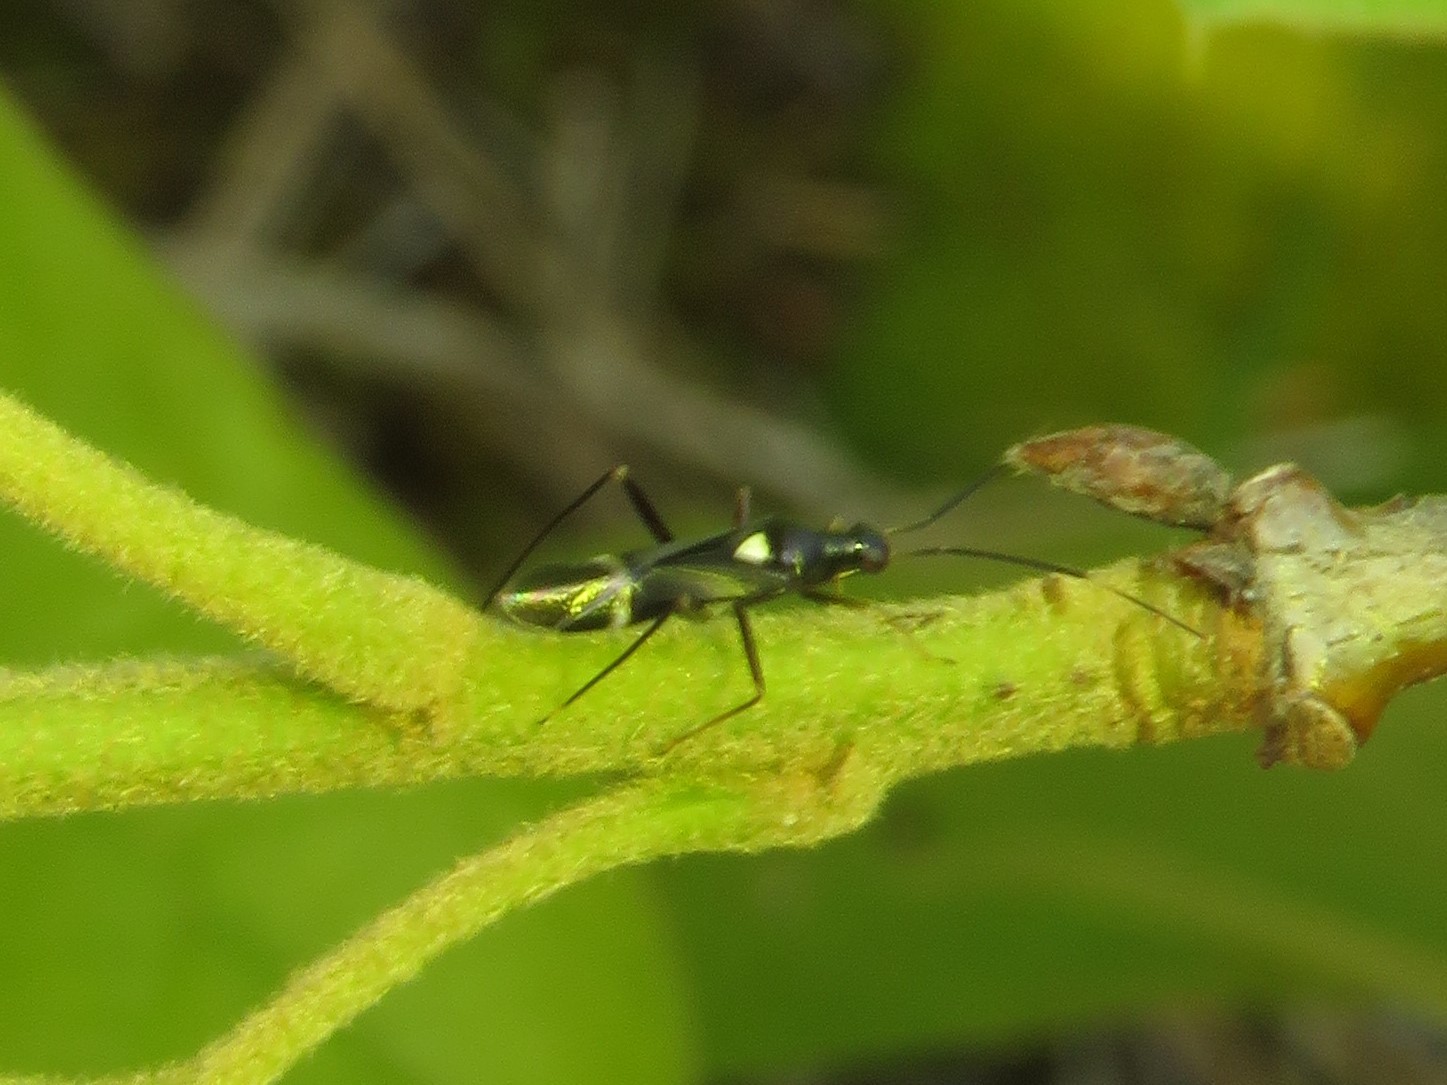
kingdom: Animalia
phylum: Arthropoda
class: Insecta
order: Hemiptera
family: Miridae
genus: Pseudoxenetus
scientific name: Pseudoxenetus regalis
